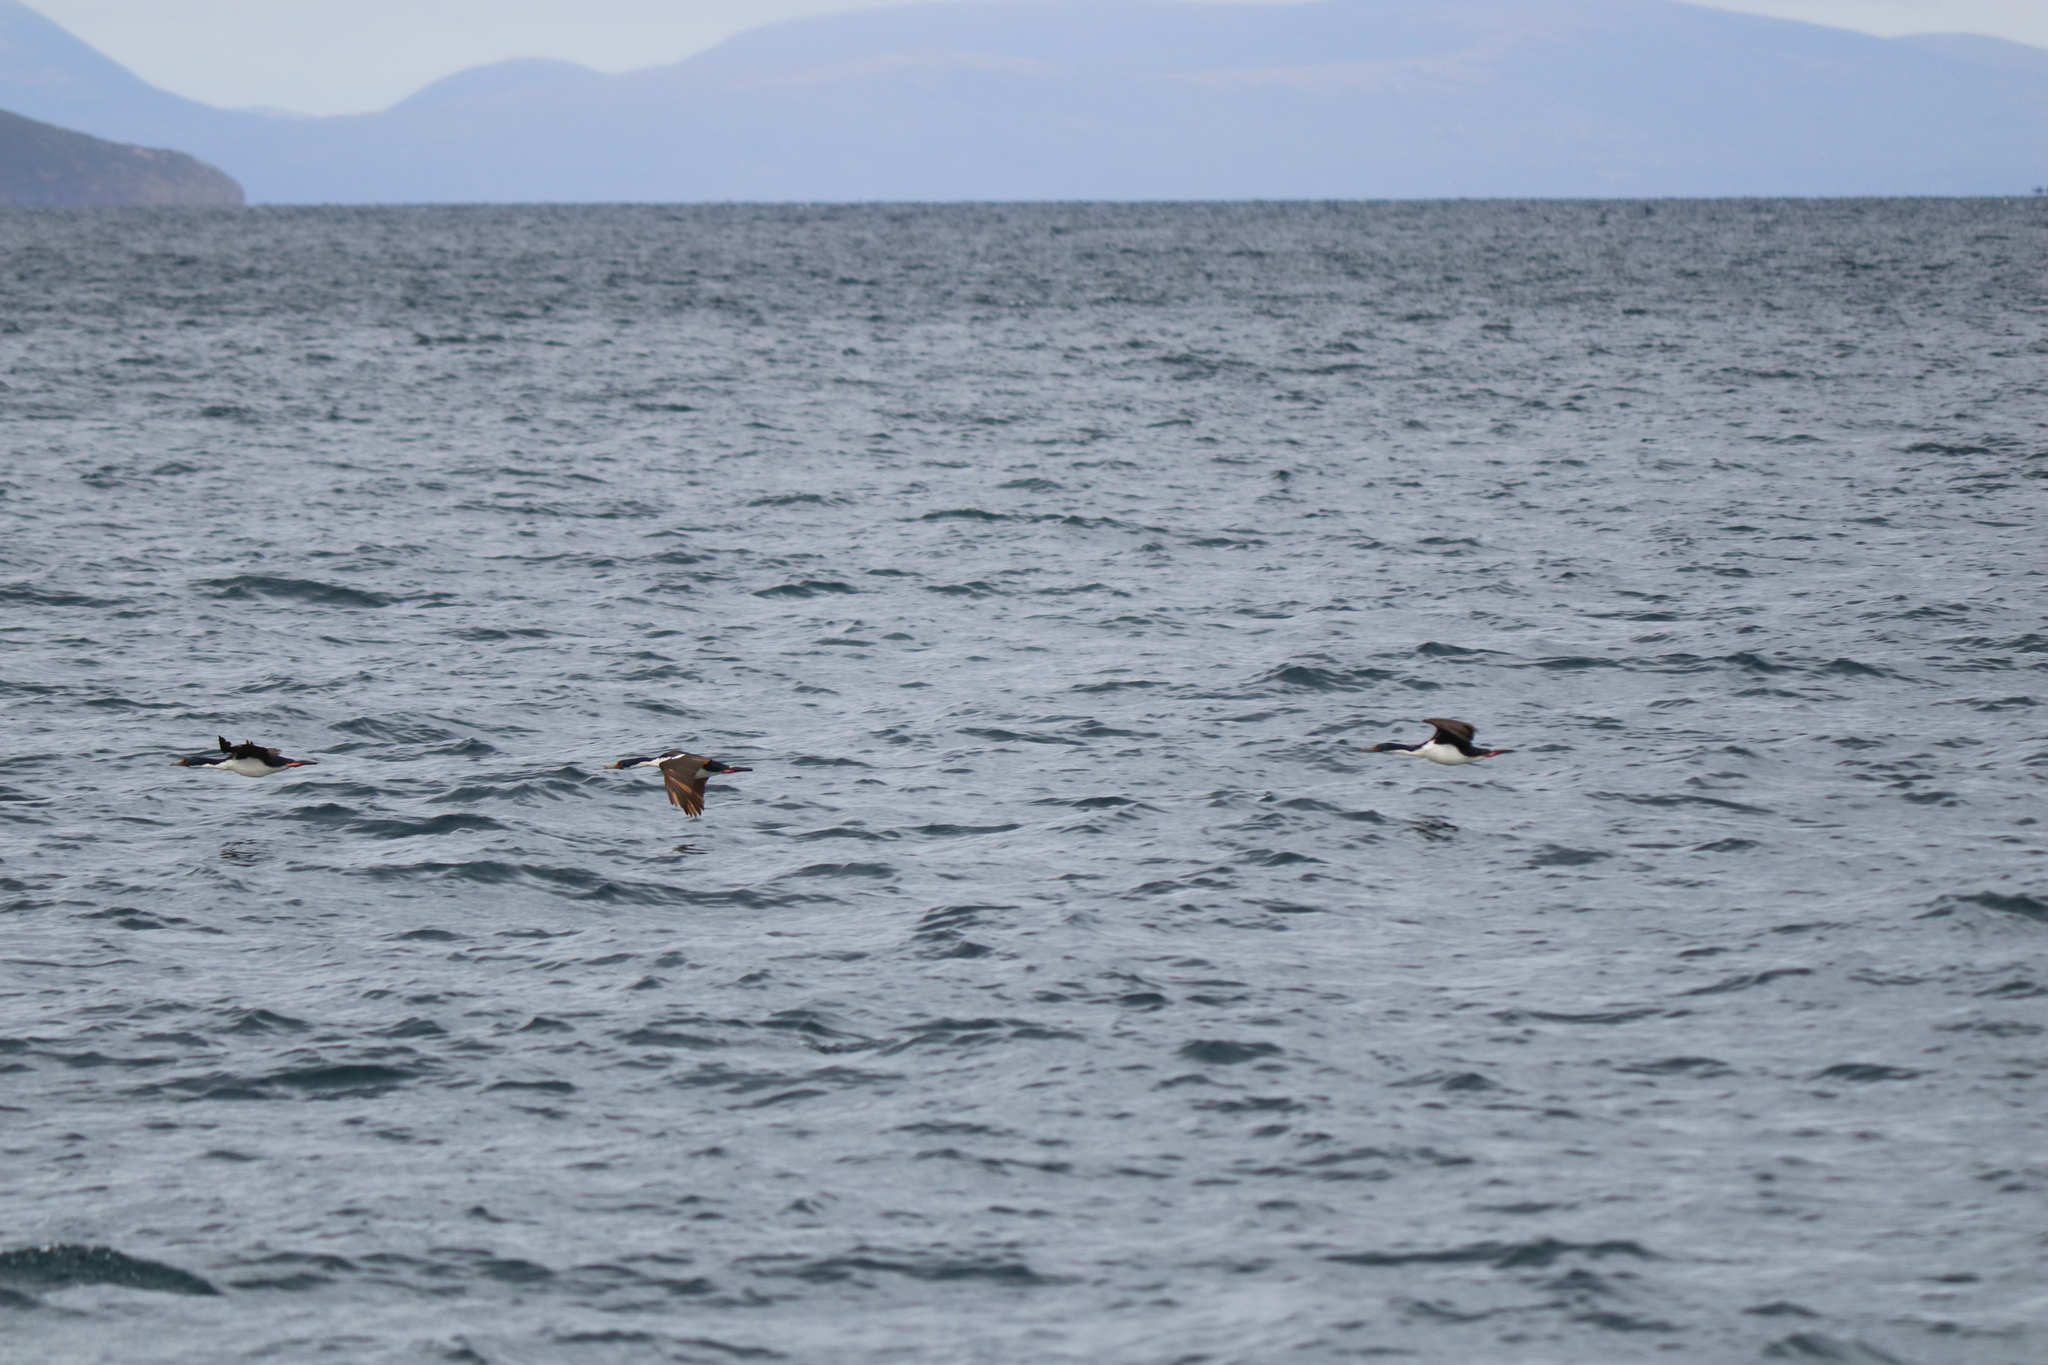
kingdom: Animalia
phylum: Chordata
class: Aves
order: Suliformes
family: Phalacrocoracidae
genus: Leucocarbo
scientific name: Leucocarbo atriceps
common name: Imperial shag
